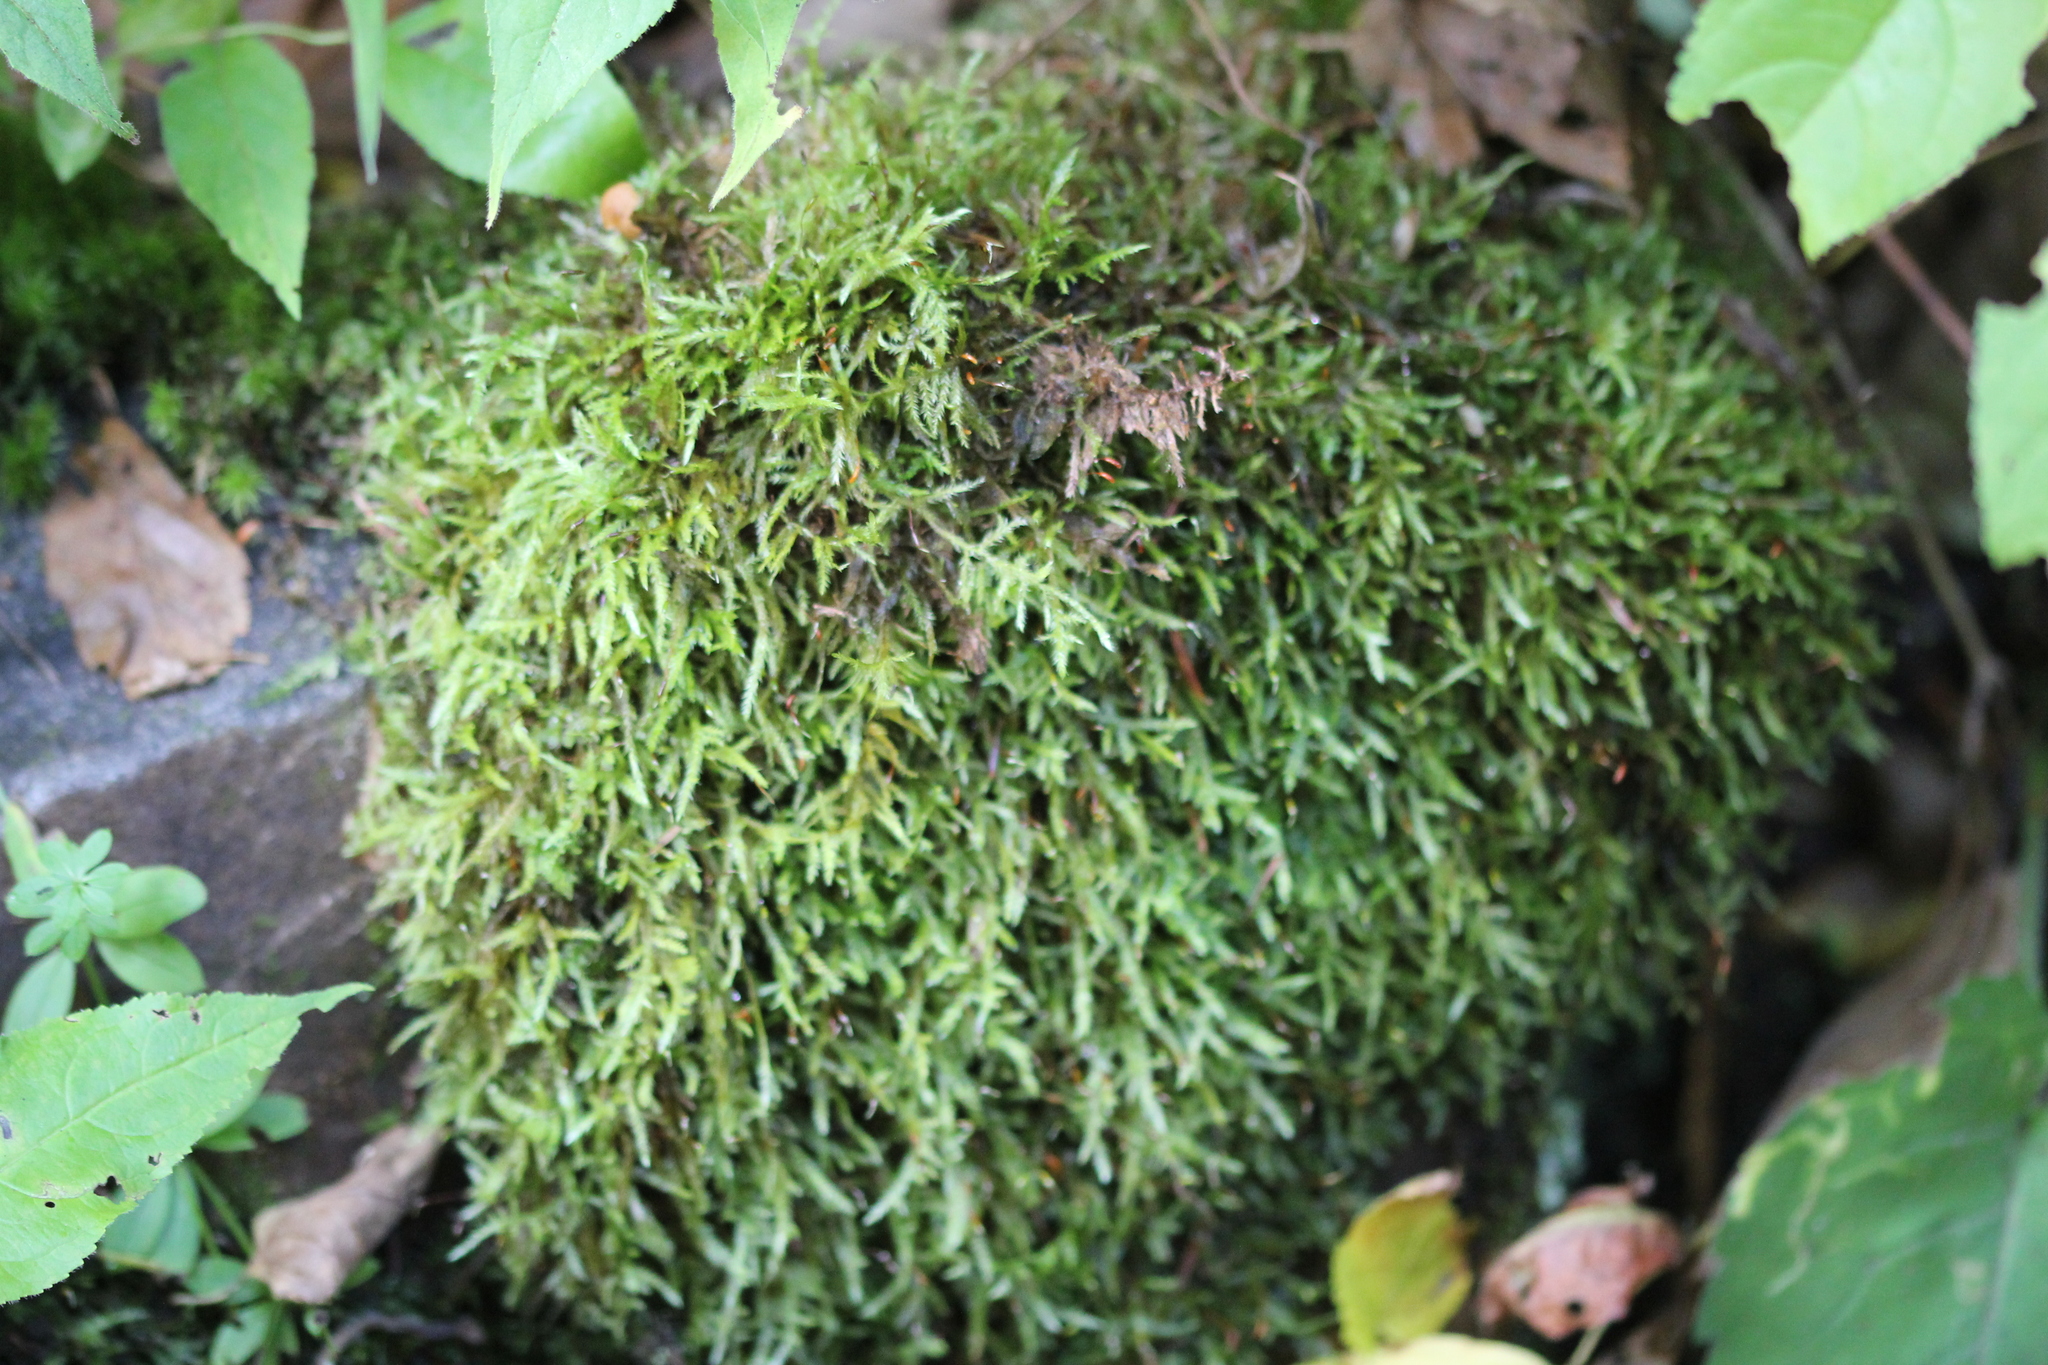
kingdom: Plantae
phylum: Bryophyta
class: Bryopsida
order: Hypnales
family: Callicladiaceae
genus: Callicladium
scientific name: Callicladium haldanianum
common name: Beautiful branch moss
